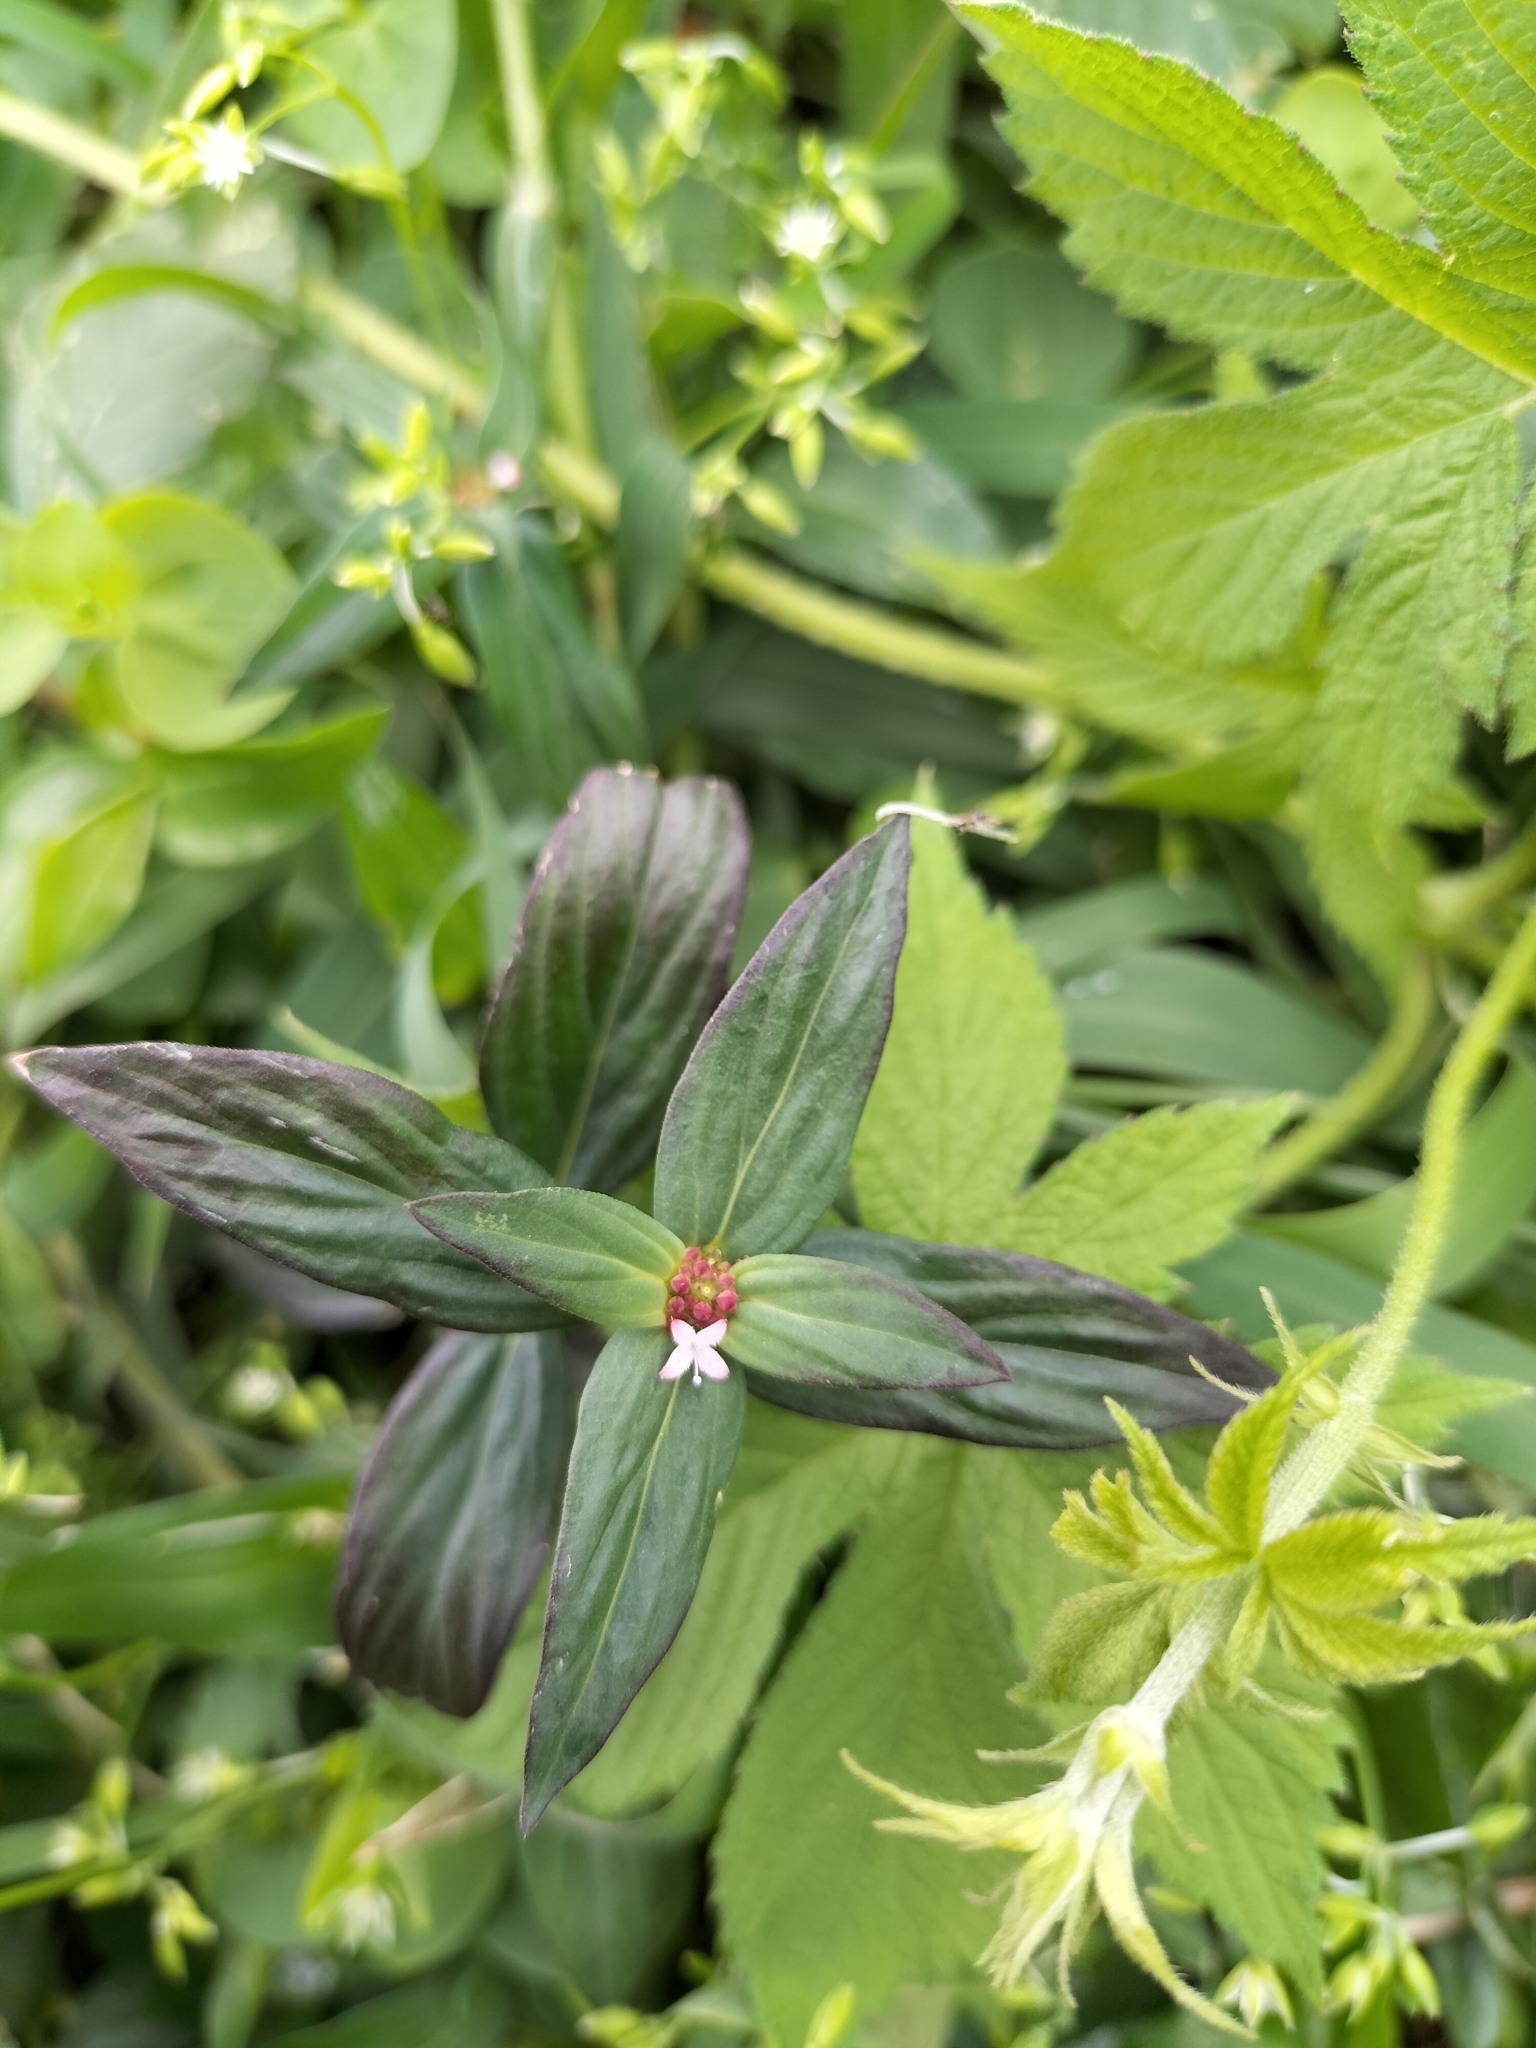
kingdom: Plantae
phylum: Tracheophyta
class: Magnoliopsida
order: Gentianales
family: Rubiaceae
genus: Spermacoce
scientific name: Spermacoce remota
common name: Woodland false buttonweed
